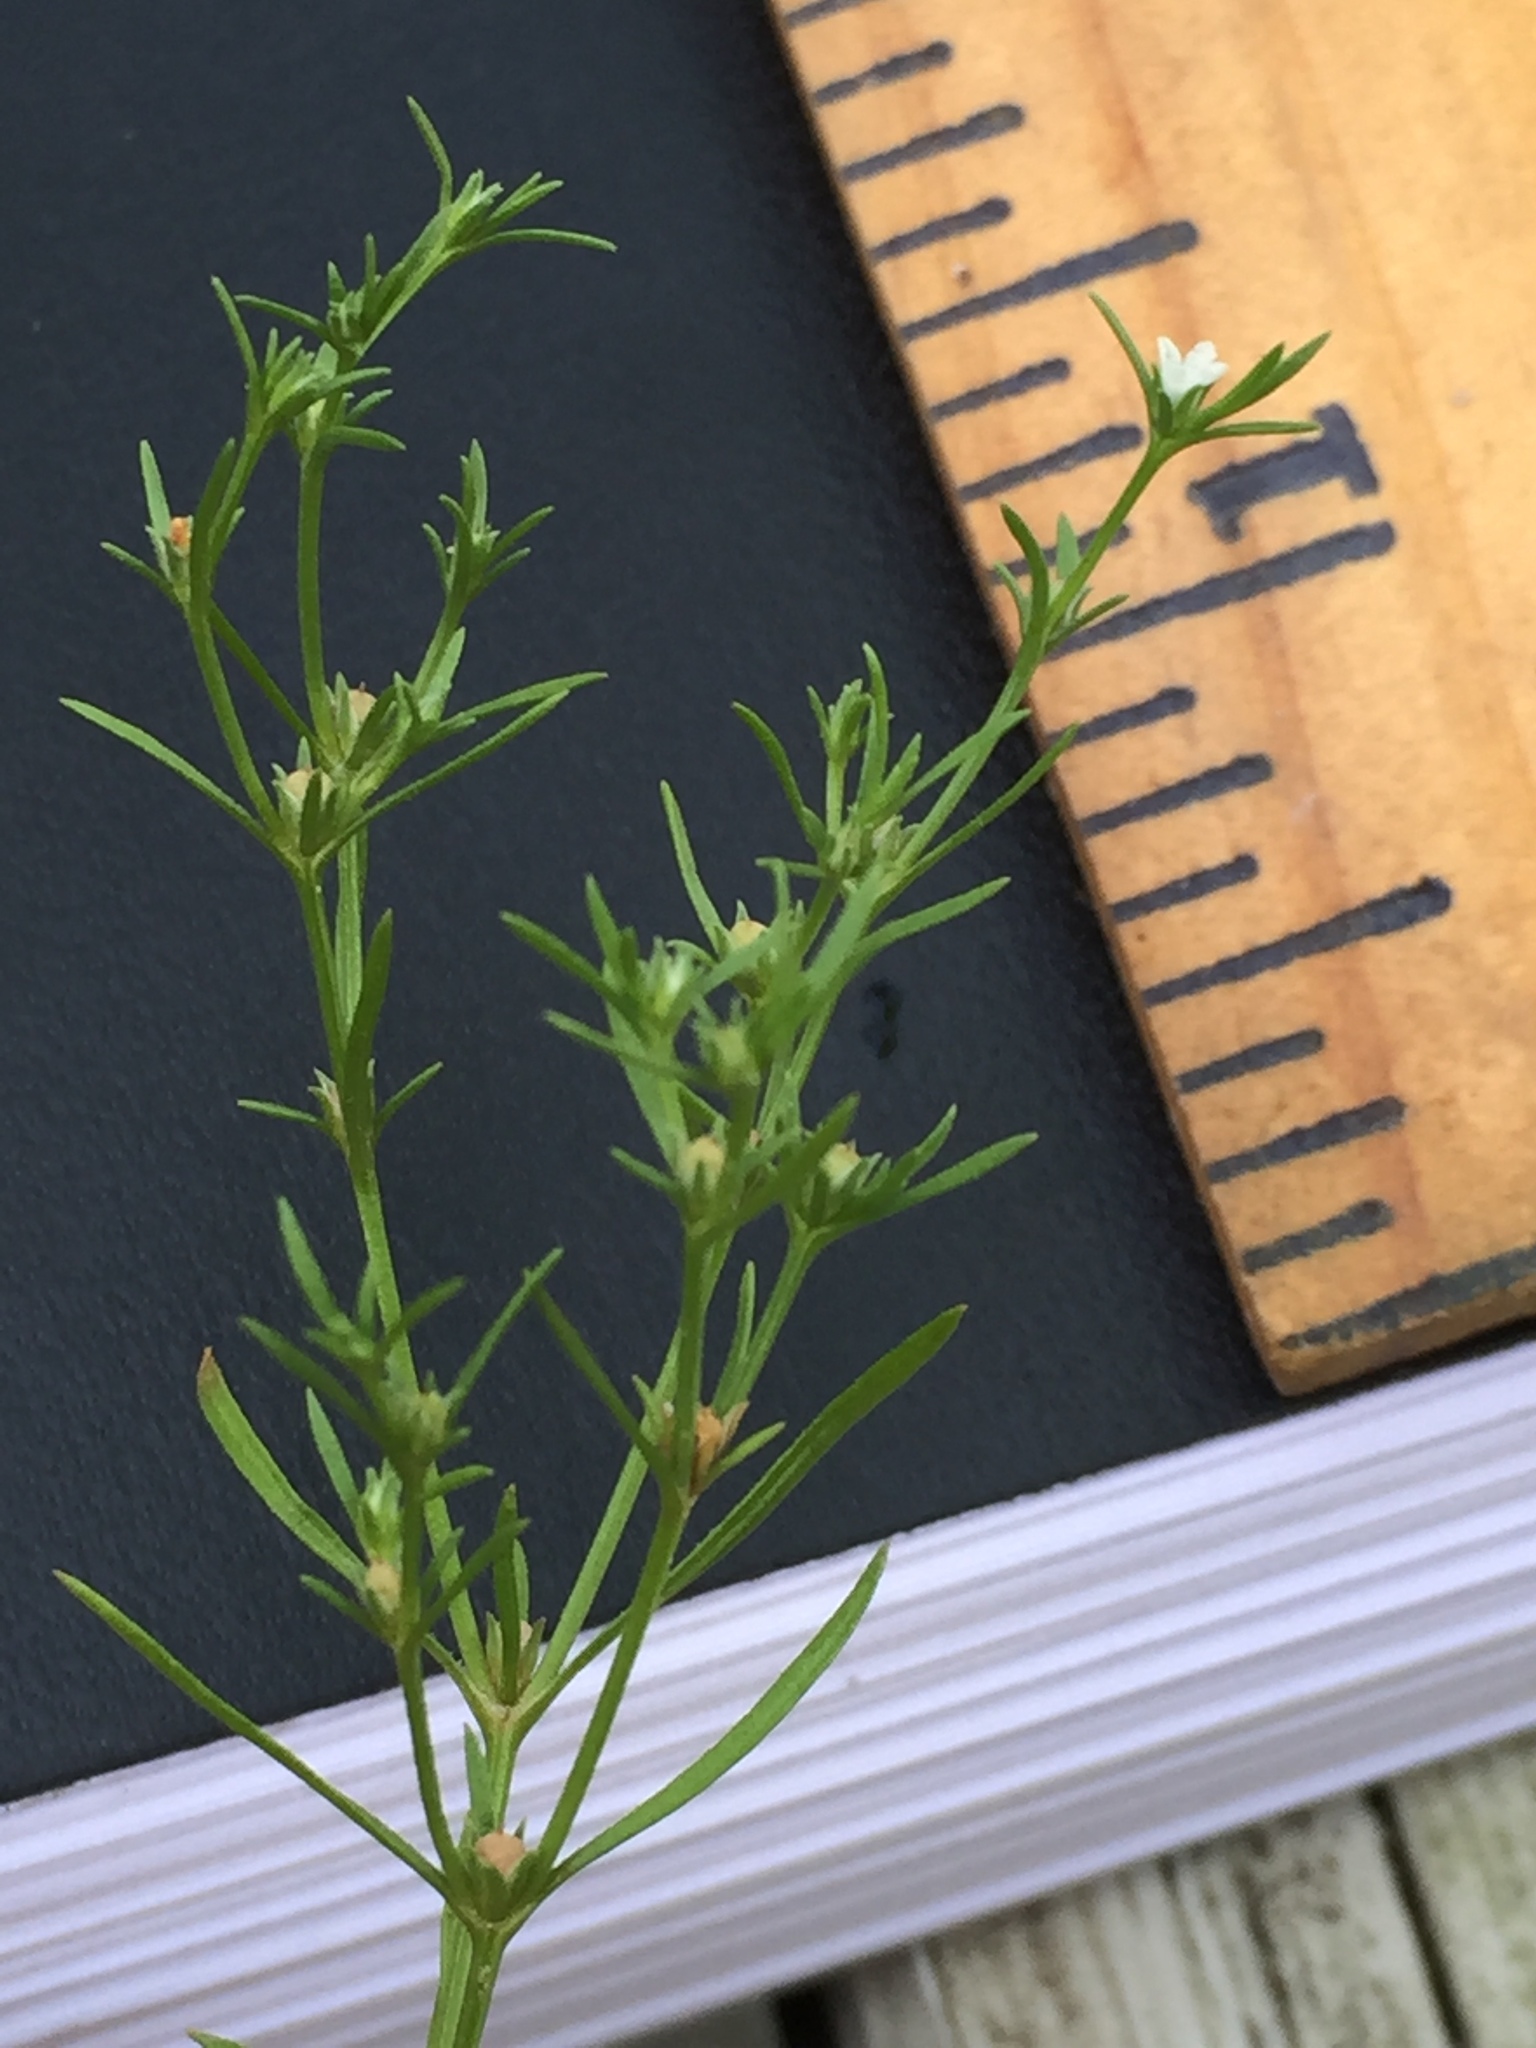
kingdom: Plantae
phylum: Tracheophyta
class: Magnoliopsida
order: Lamiales
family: Tetrachondraceae
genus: Polypremum
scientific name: Polypremum procumbens
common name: Juniper-leaf
